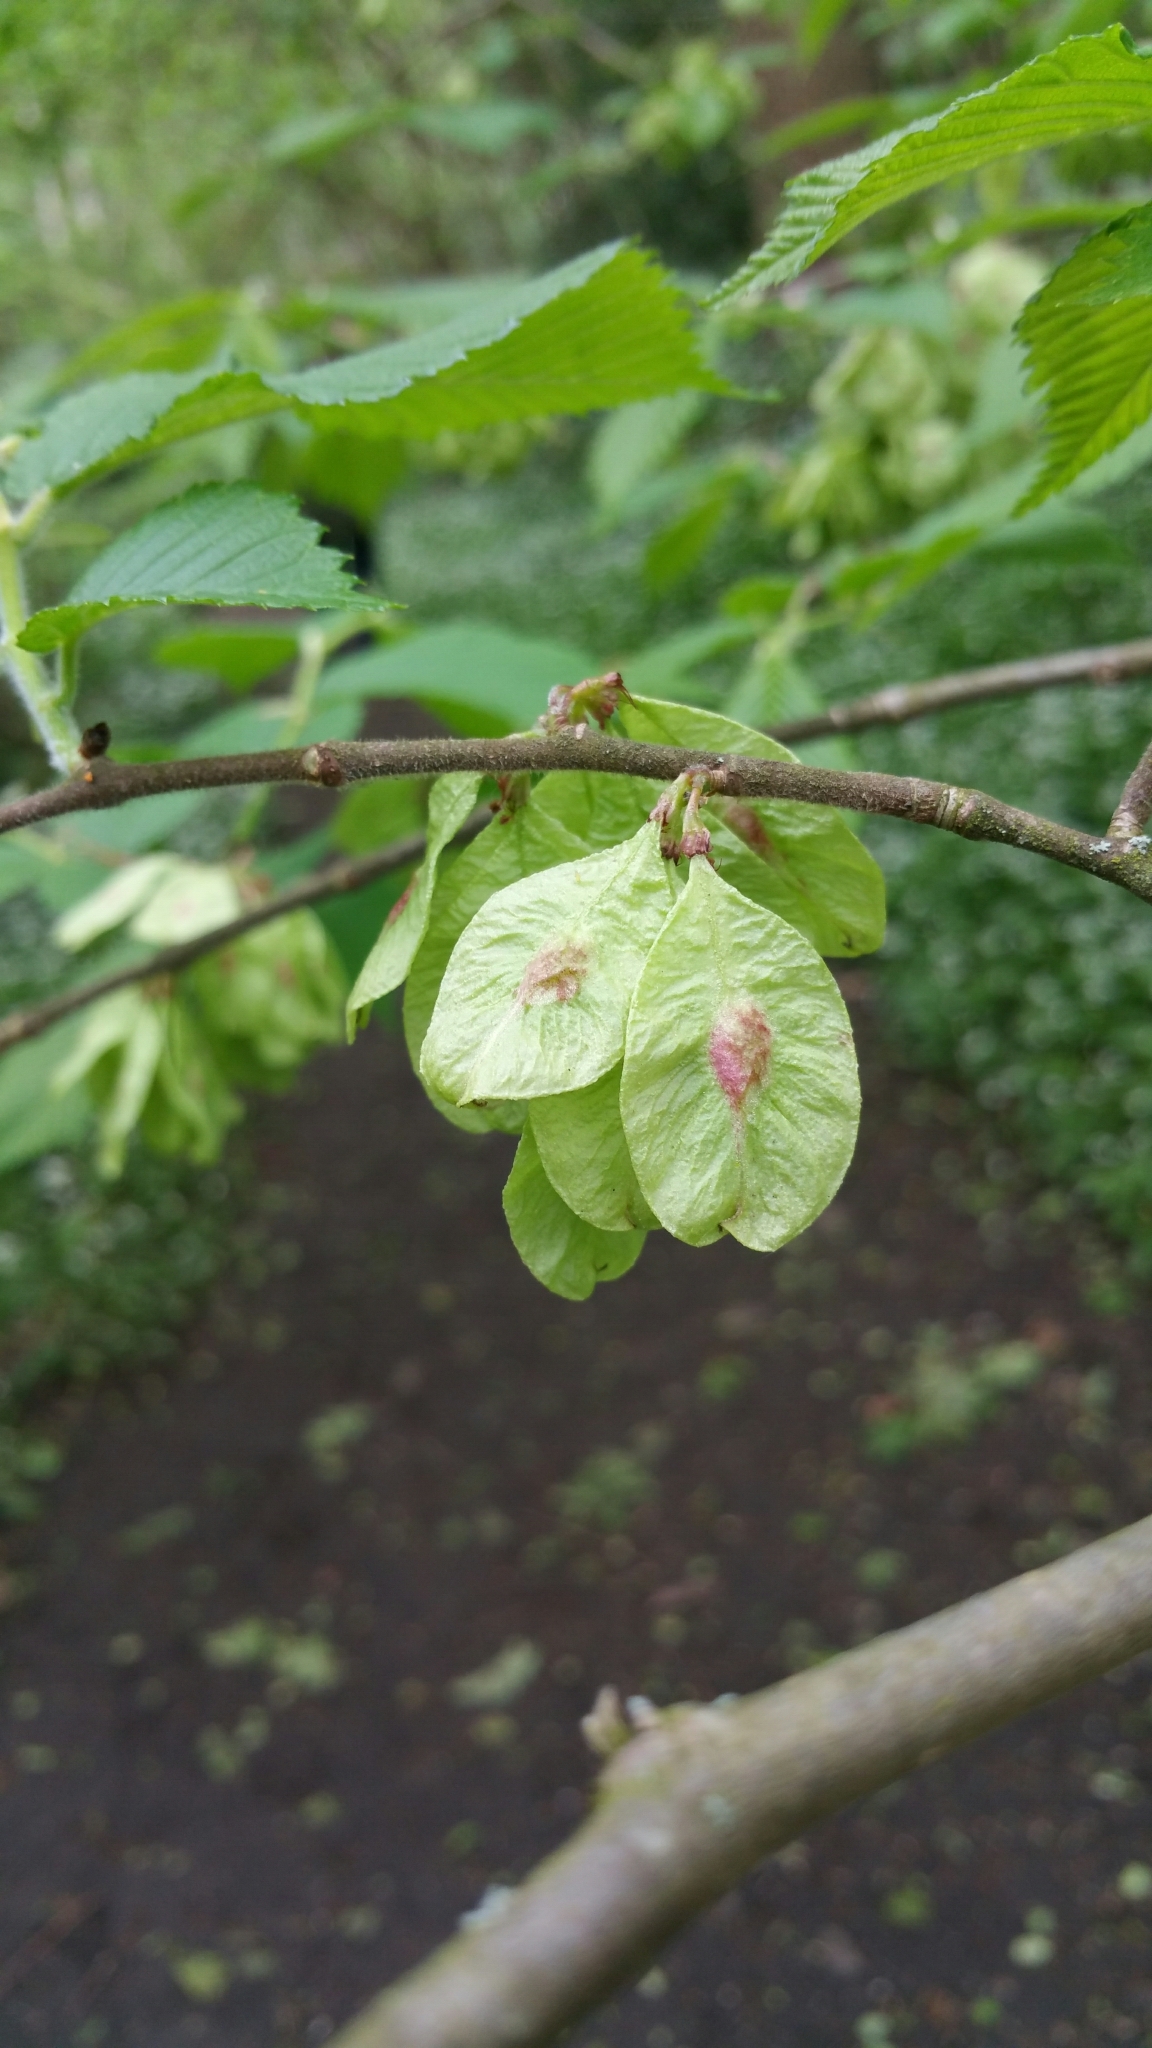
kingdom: Plantae
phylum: Tracheophyta
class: Magnoliopsida
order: Rosales
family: Ulmaceae
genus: Ulmus
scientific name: Ulmus glabra
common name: Wych elm
